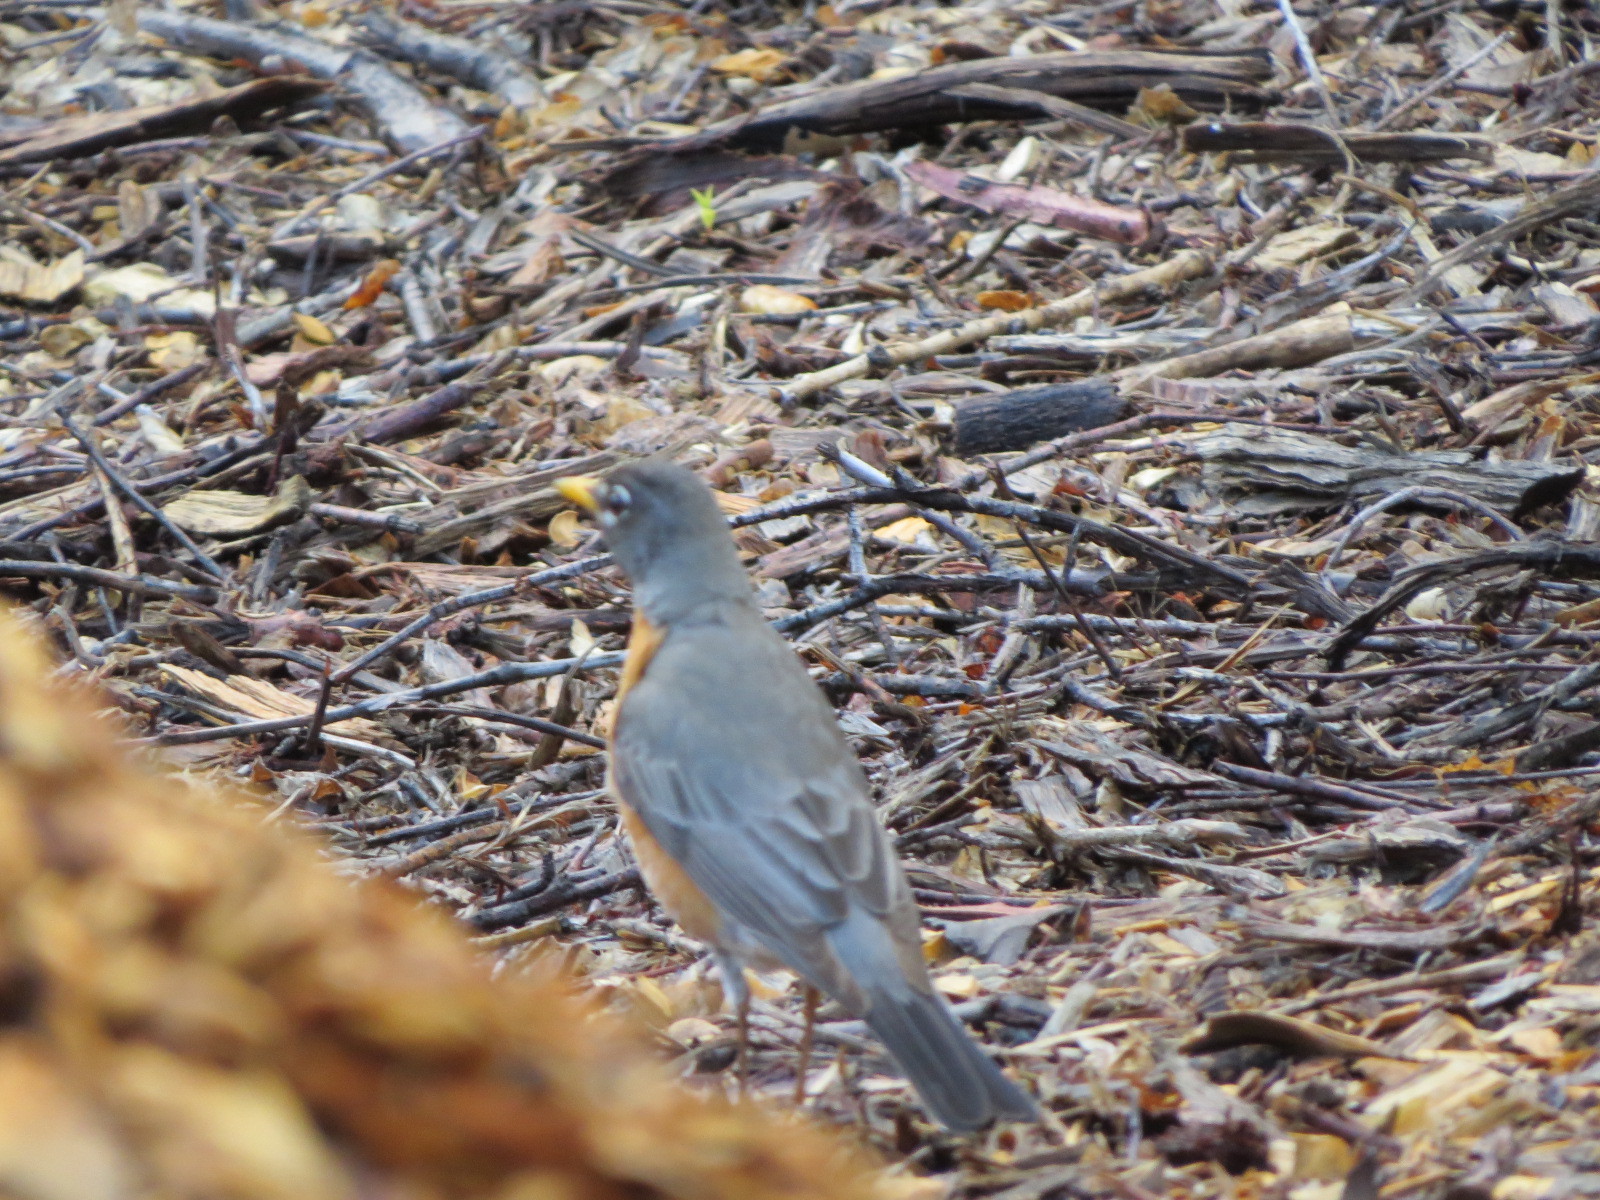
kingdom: Animalia
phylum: Chordata
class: Aves
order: Passeriformes
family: Turdidae
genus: Turdus
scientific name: Turdus migratorius
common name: American robin
